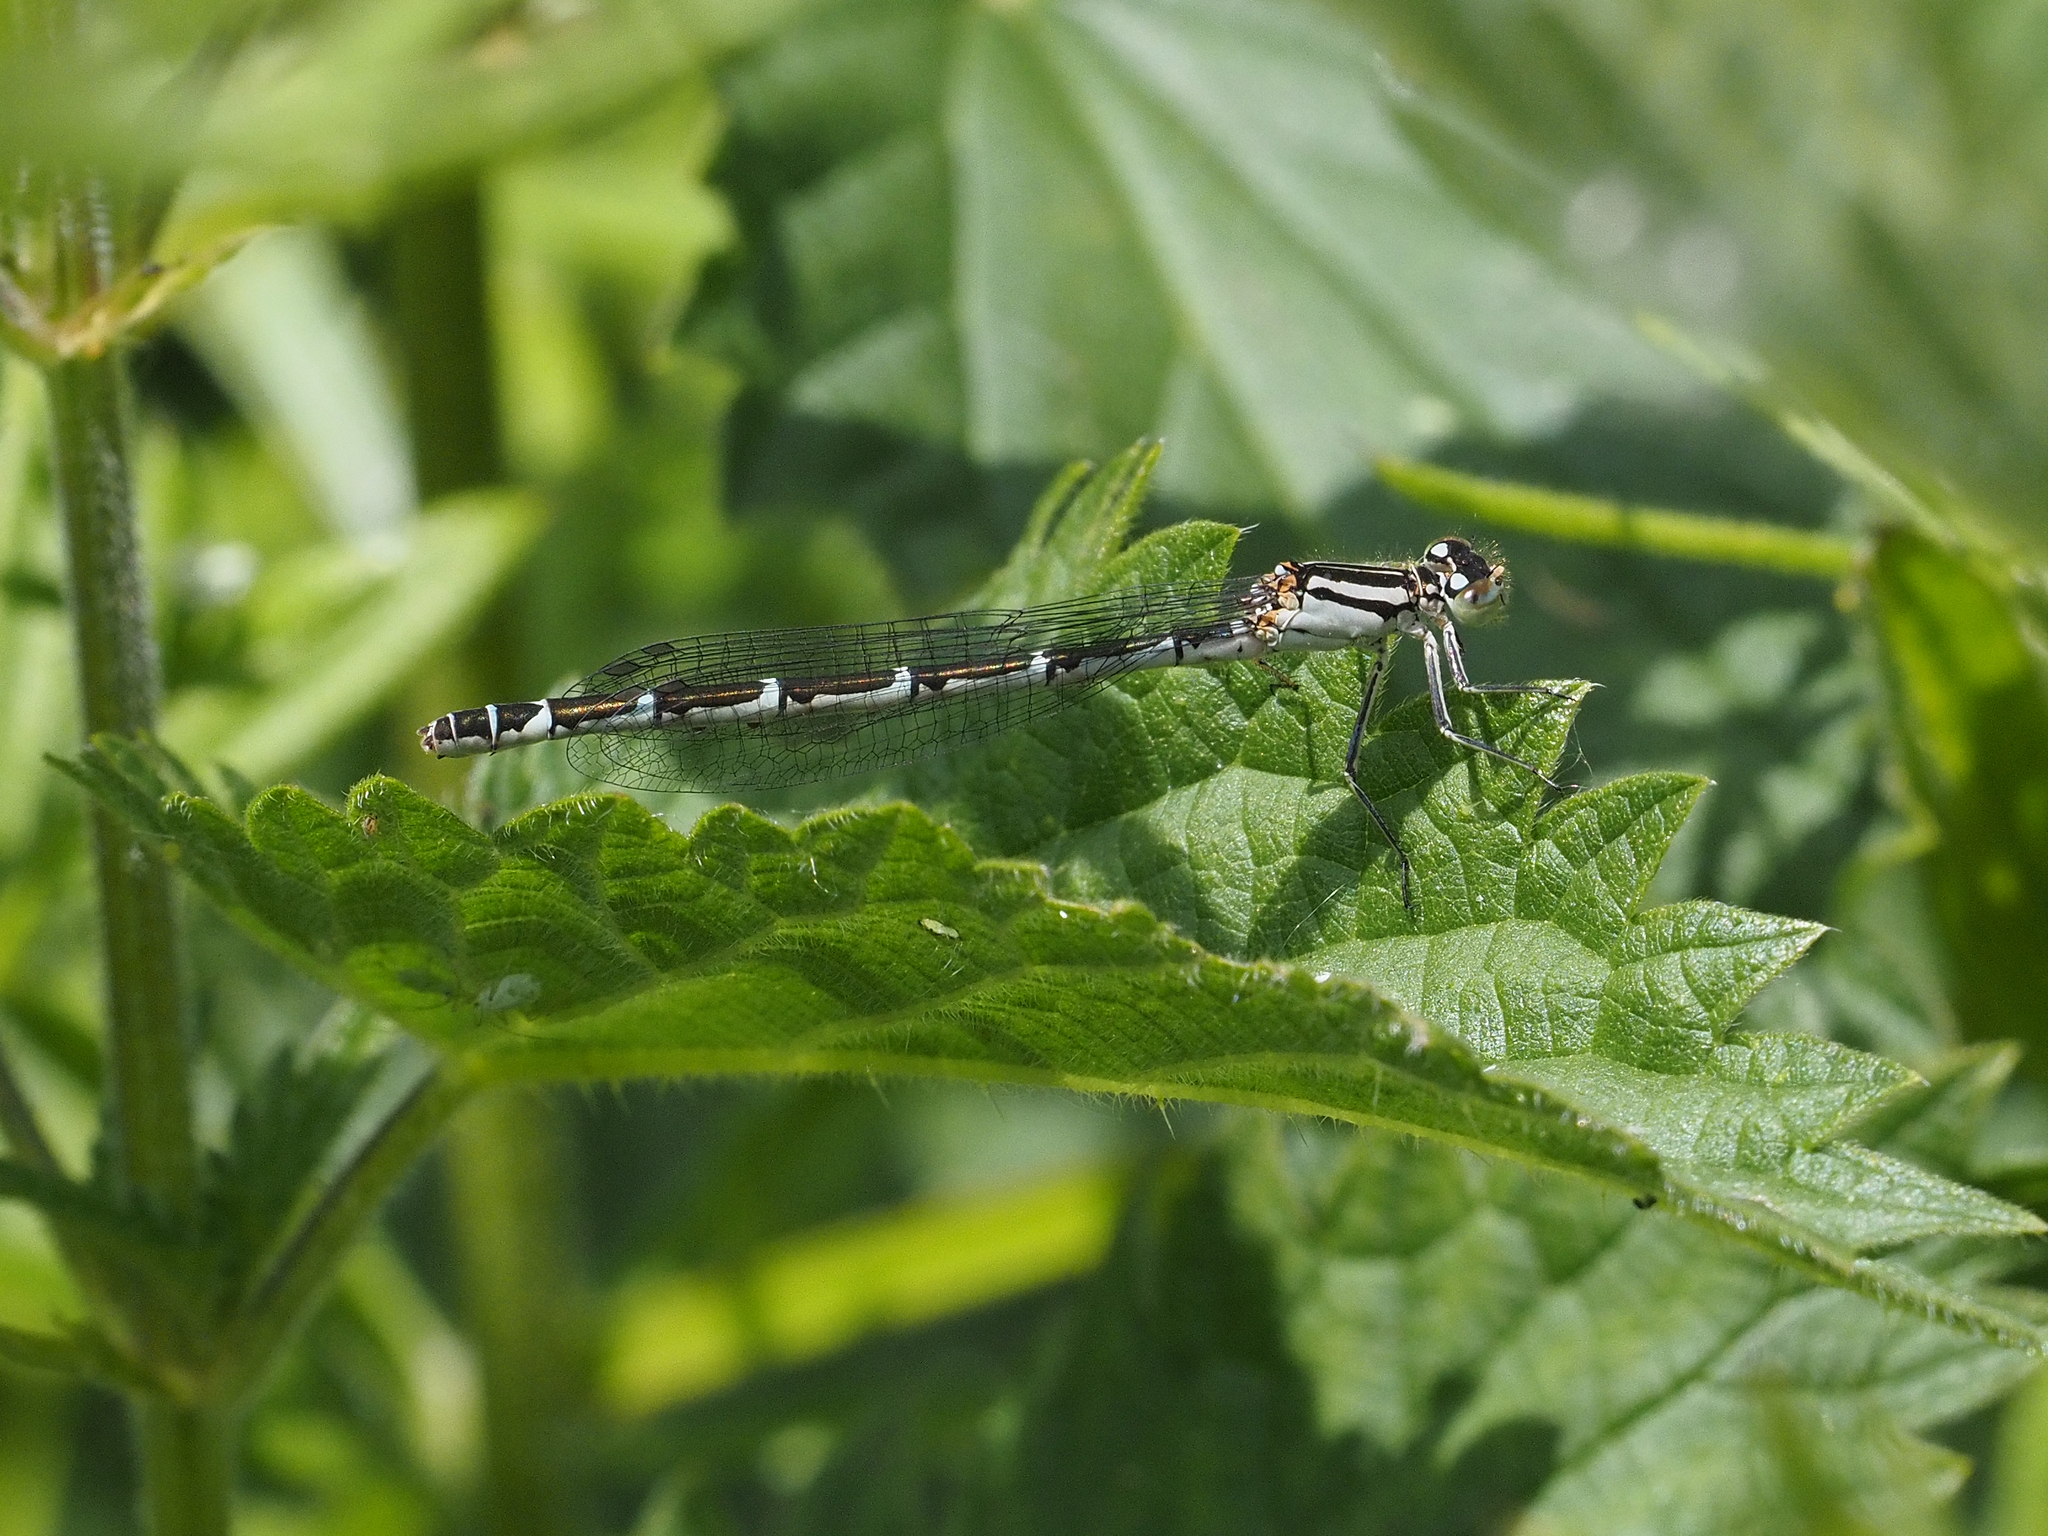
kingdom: Animalia
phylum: Arthropoda
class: Insecta
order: Odonata
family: Coenagrionidae
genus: Enallagma
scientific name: Enallagma cyathigerum
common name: Common blue damselfly
